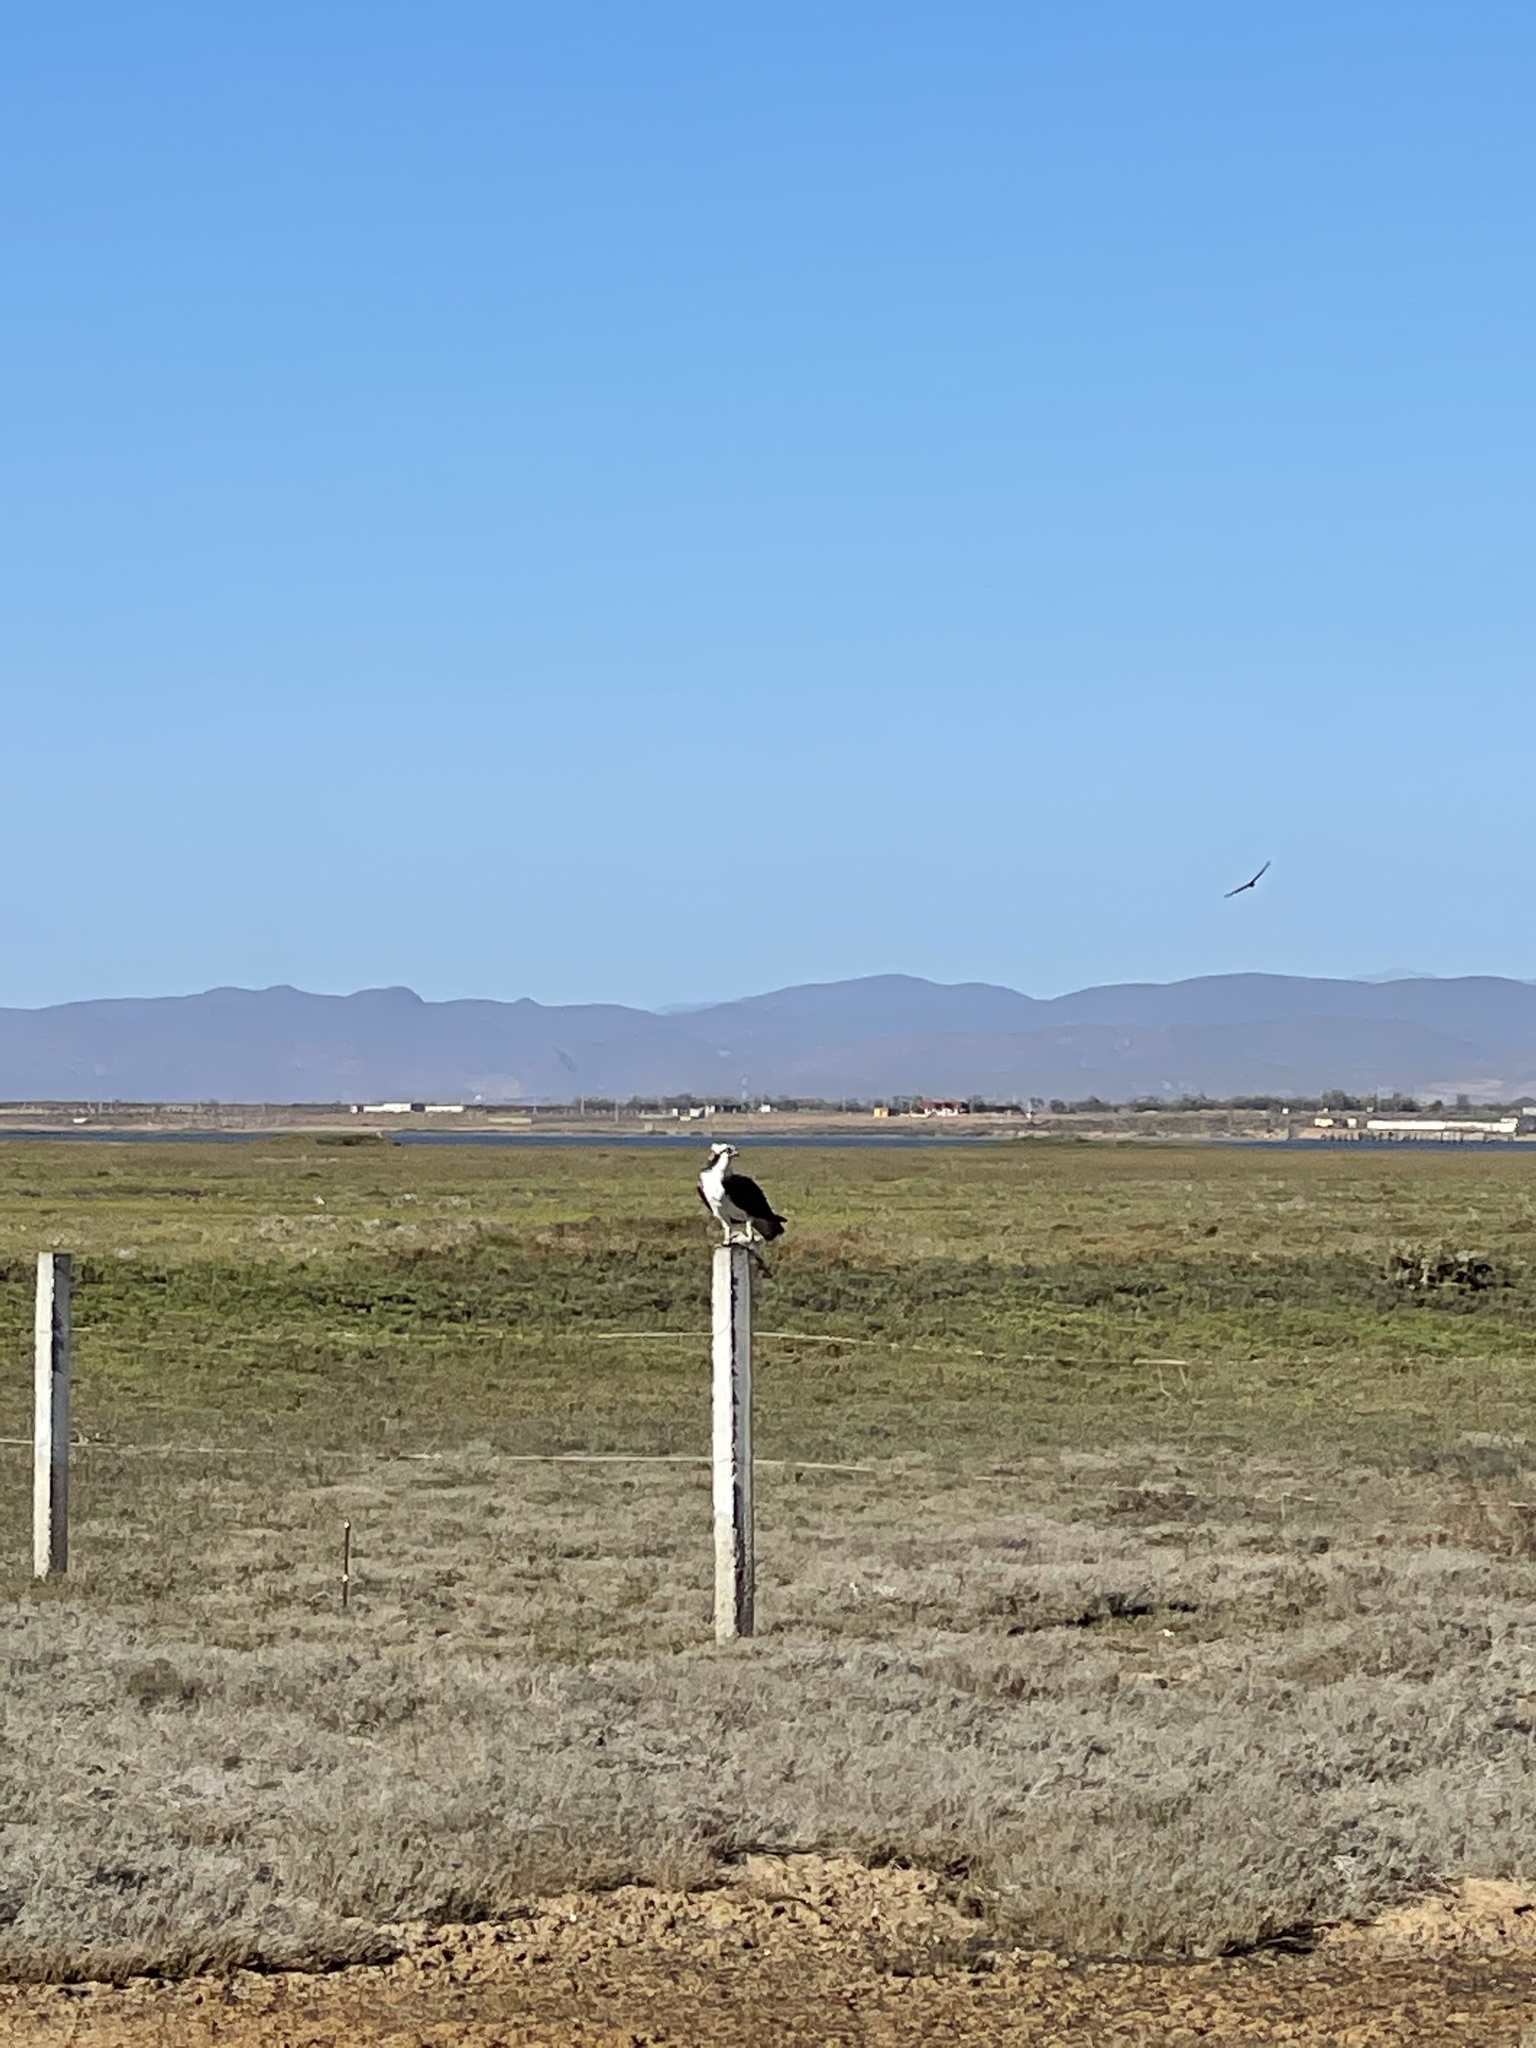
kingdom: Animalia
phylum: Chordata
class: Aves
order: Accipitriformes
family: Pandionidae
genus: Pandion
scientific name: Pandion haliaetus
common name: Osprey
